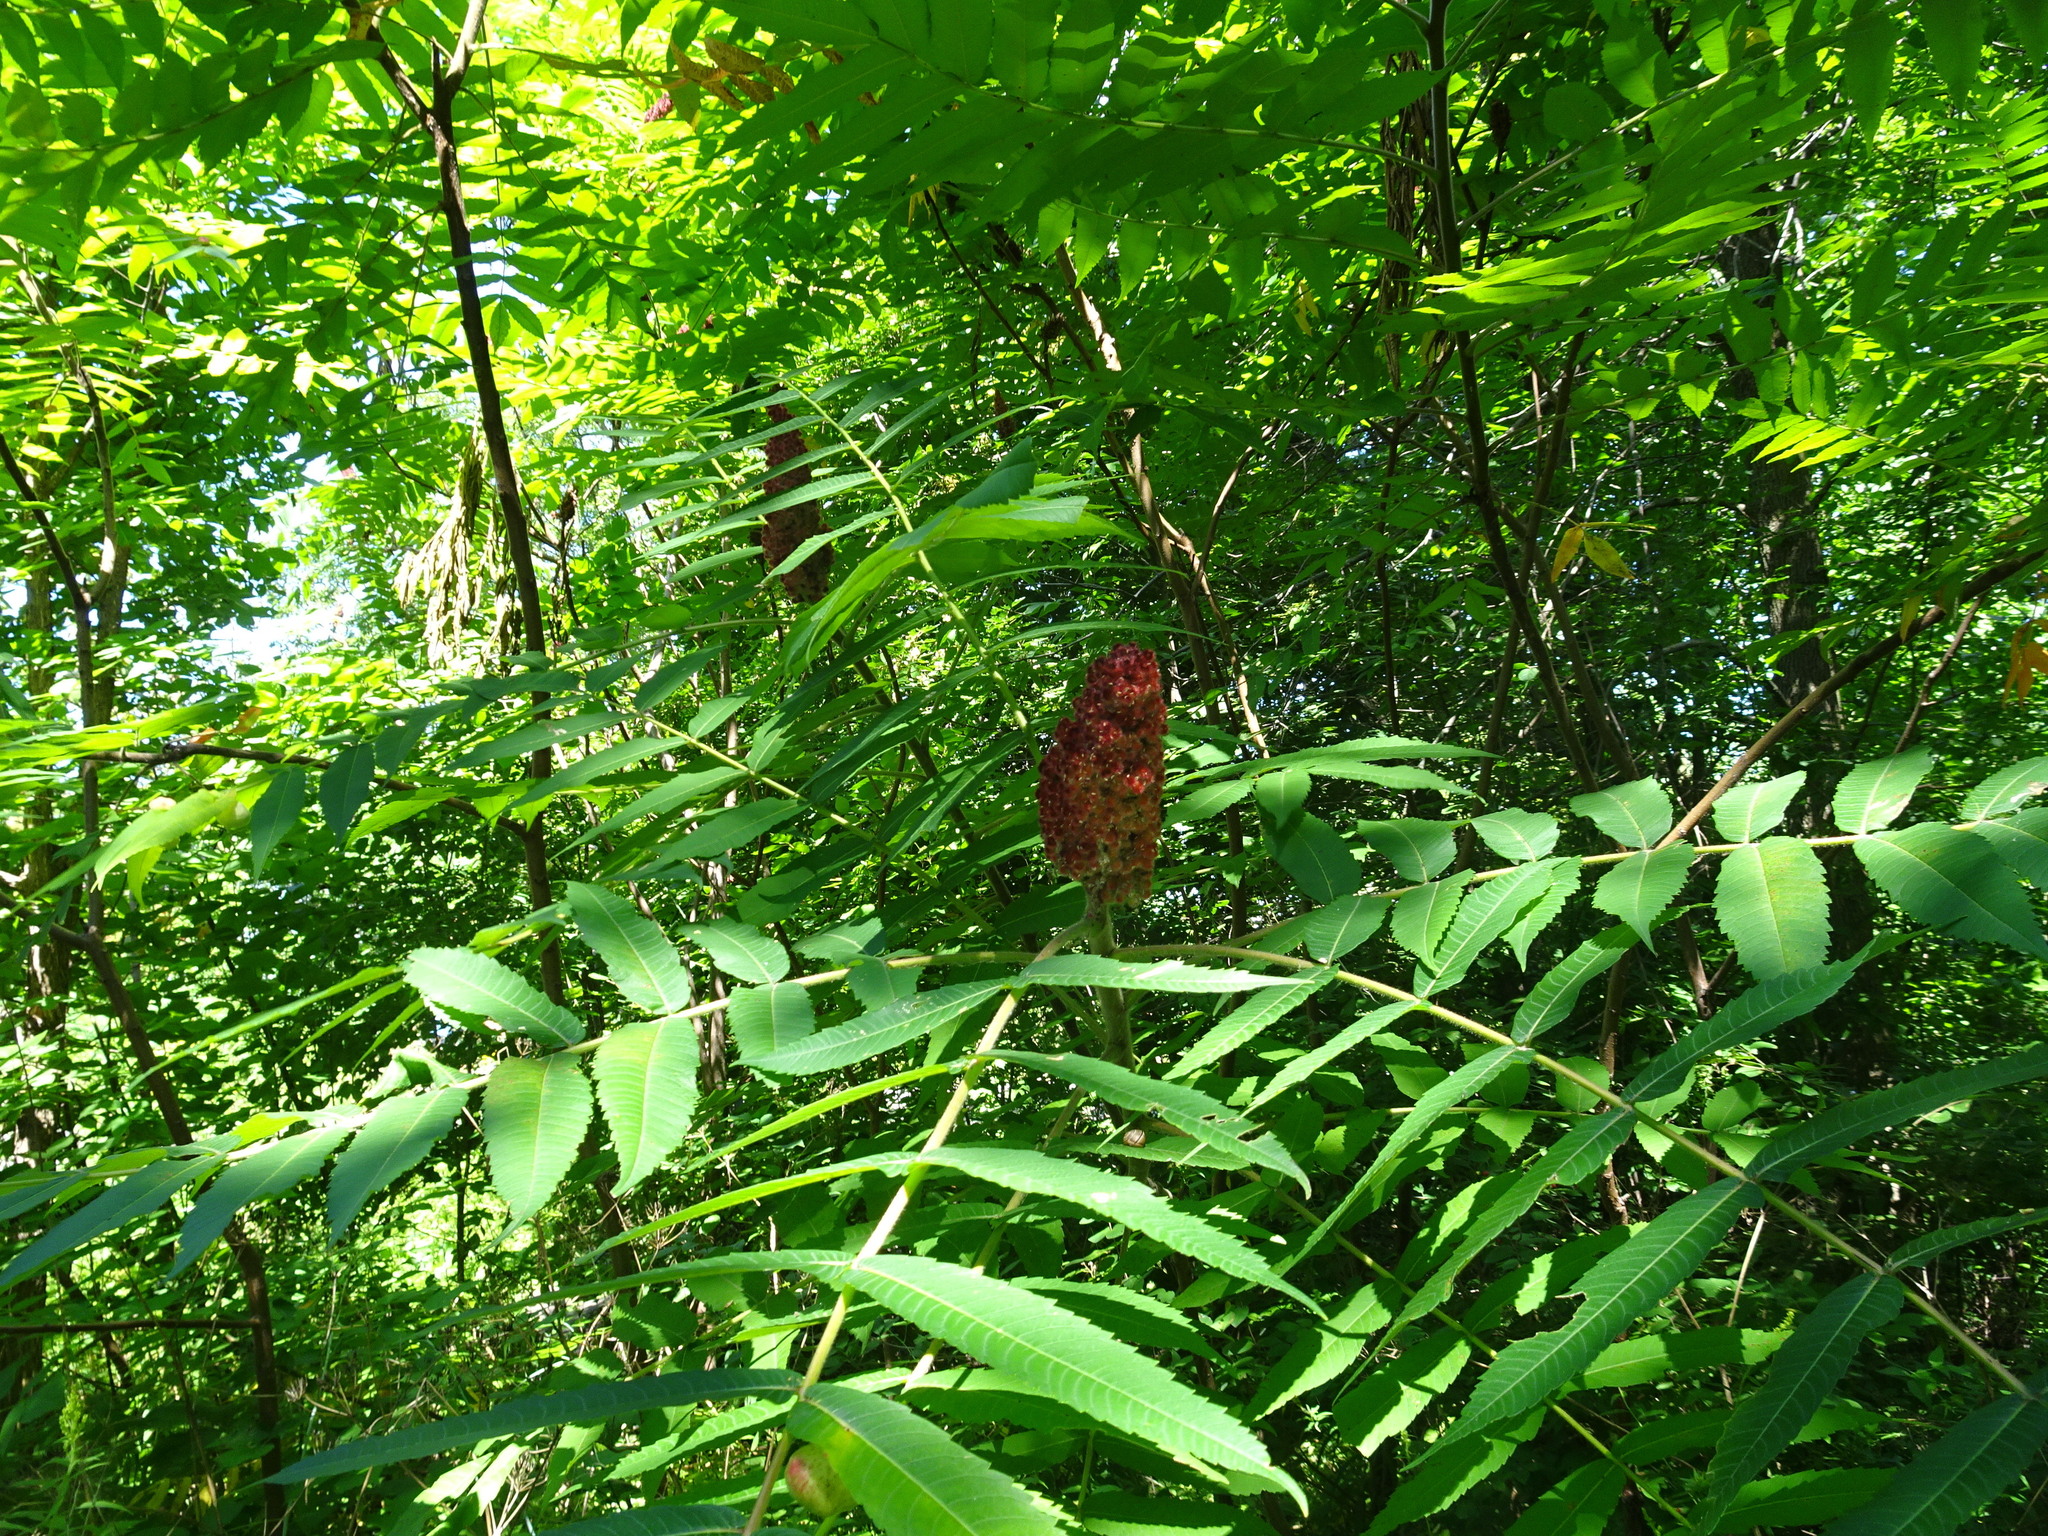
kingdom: Plantae
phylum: Tracheophyta
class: Magnoliopsida
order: Sapindales
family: Anacardiaceae
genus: Rhus
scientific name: Rhus typhina
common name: Staghorn sumac
